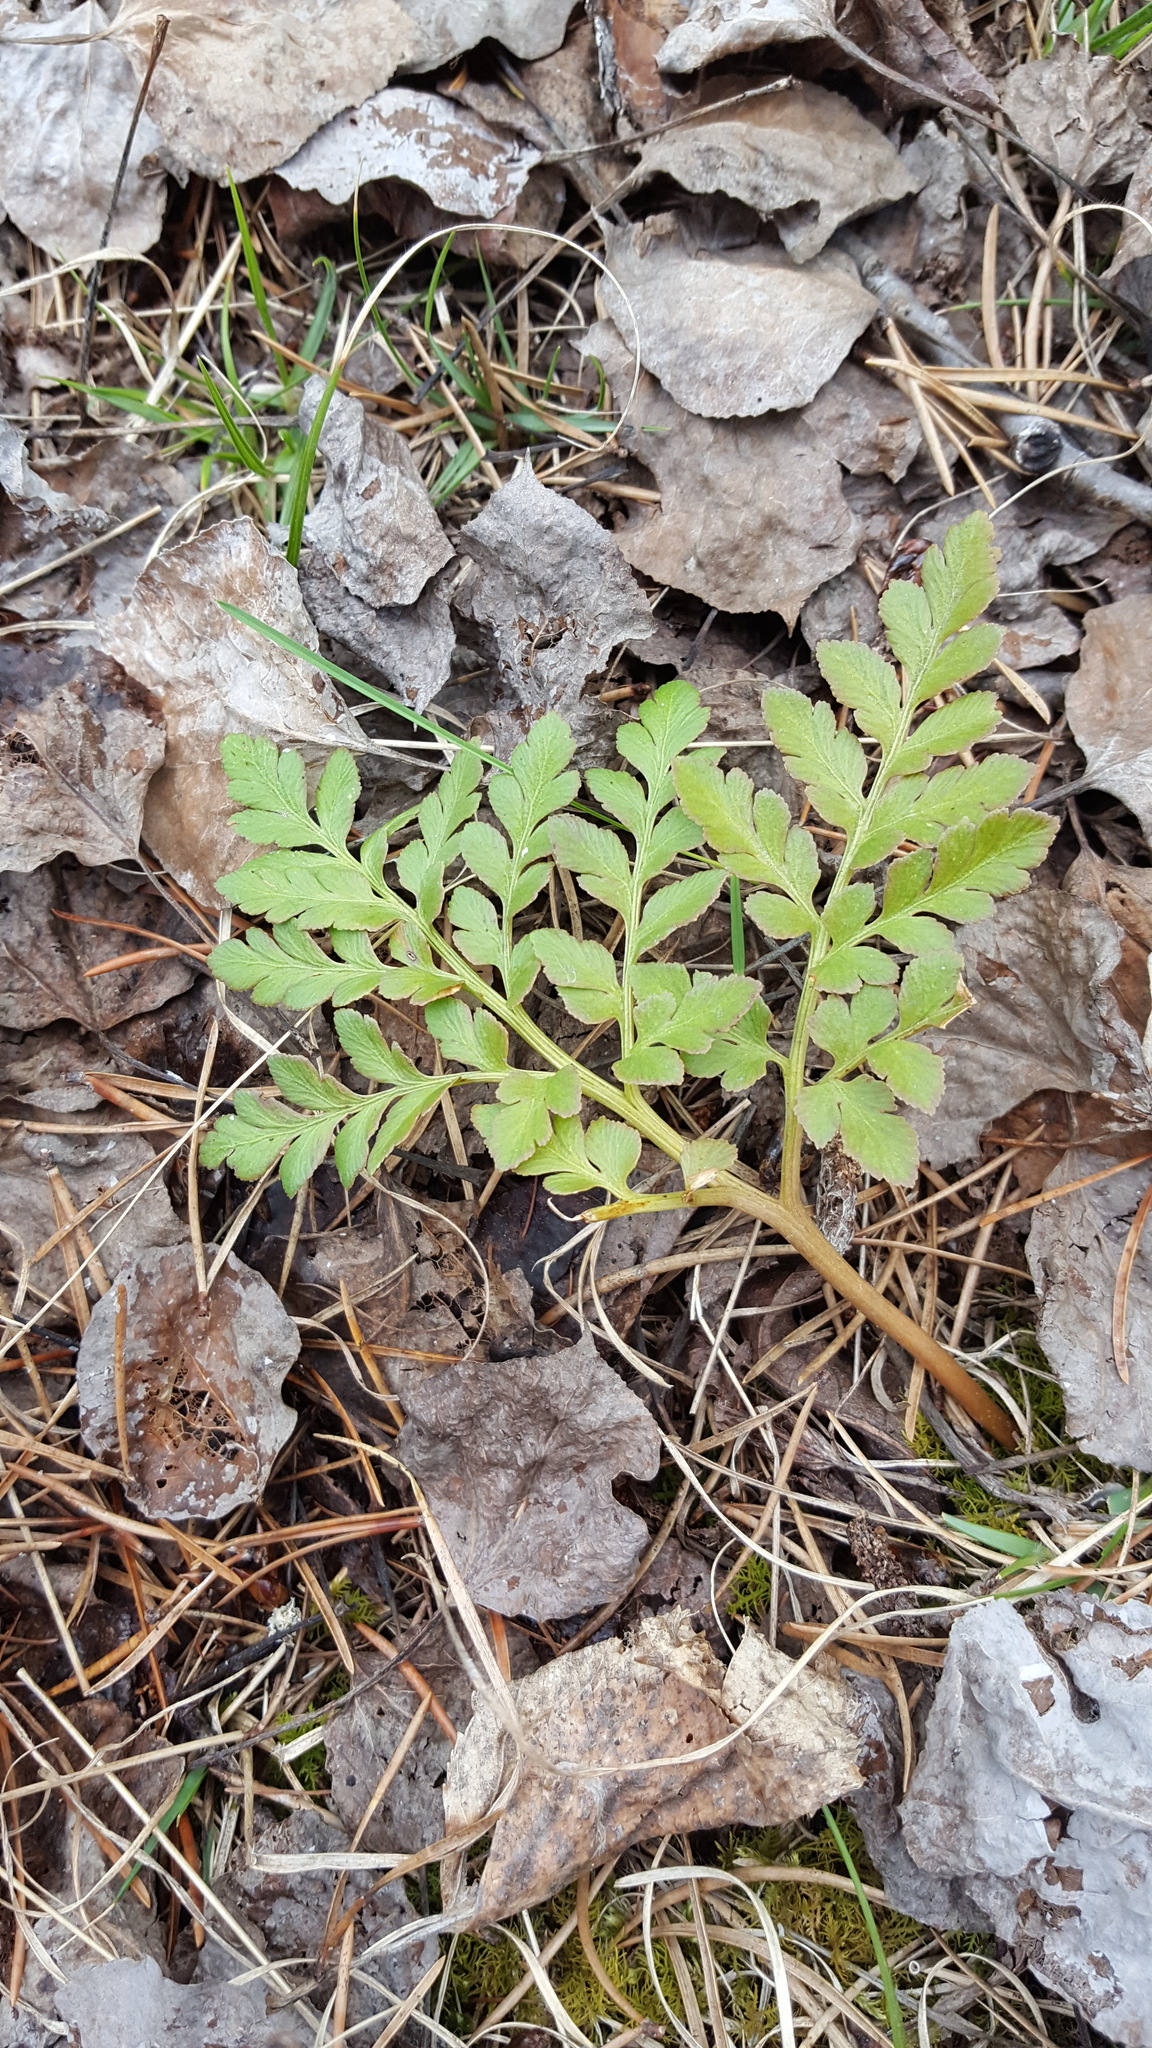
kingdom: Plantae
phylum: Tracheophyta
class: Polypodiopsida
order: Ophioglossales
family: Ophioglossaceae
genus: Sceptridium
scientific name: Sceptridium multifidum
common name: Leathery grape fern
